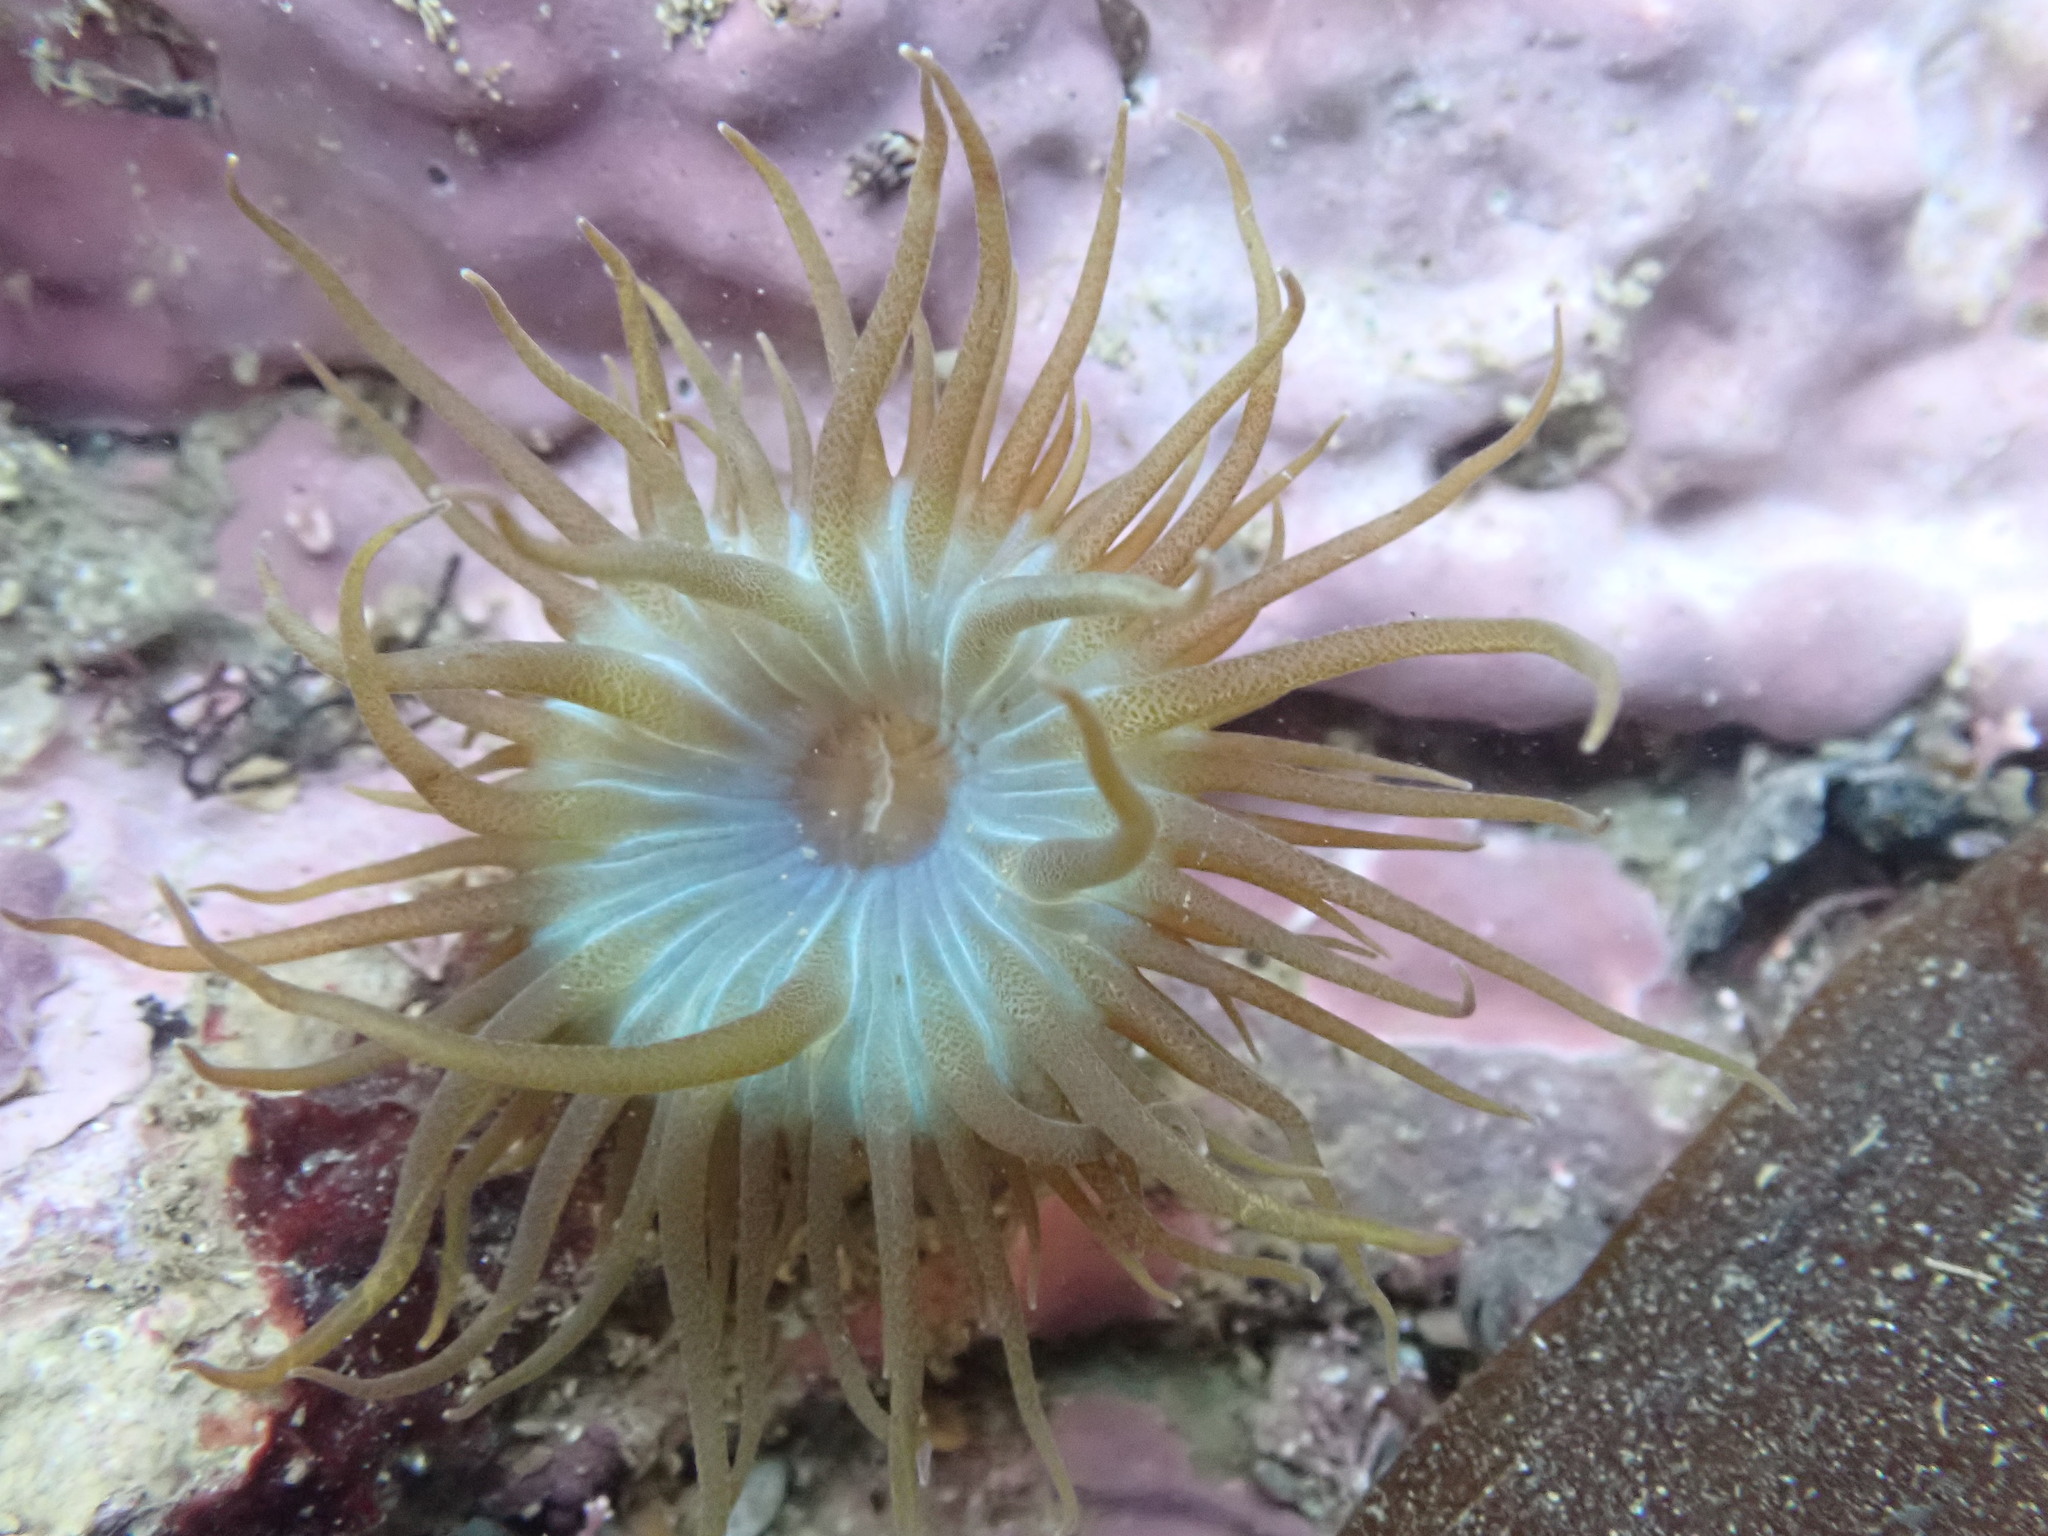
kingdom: Animalia
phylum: Cnidaria
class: Anthozoa
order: Actiniaria
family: Aiptasiidae
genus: Aiptasia
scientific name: Aiptasia couchii
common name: Trumpet anemone
